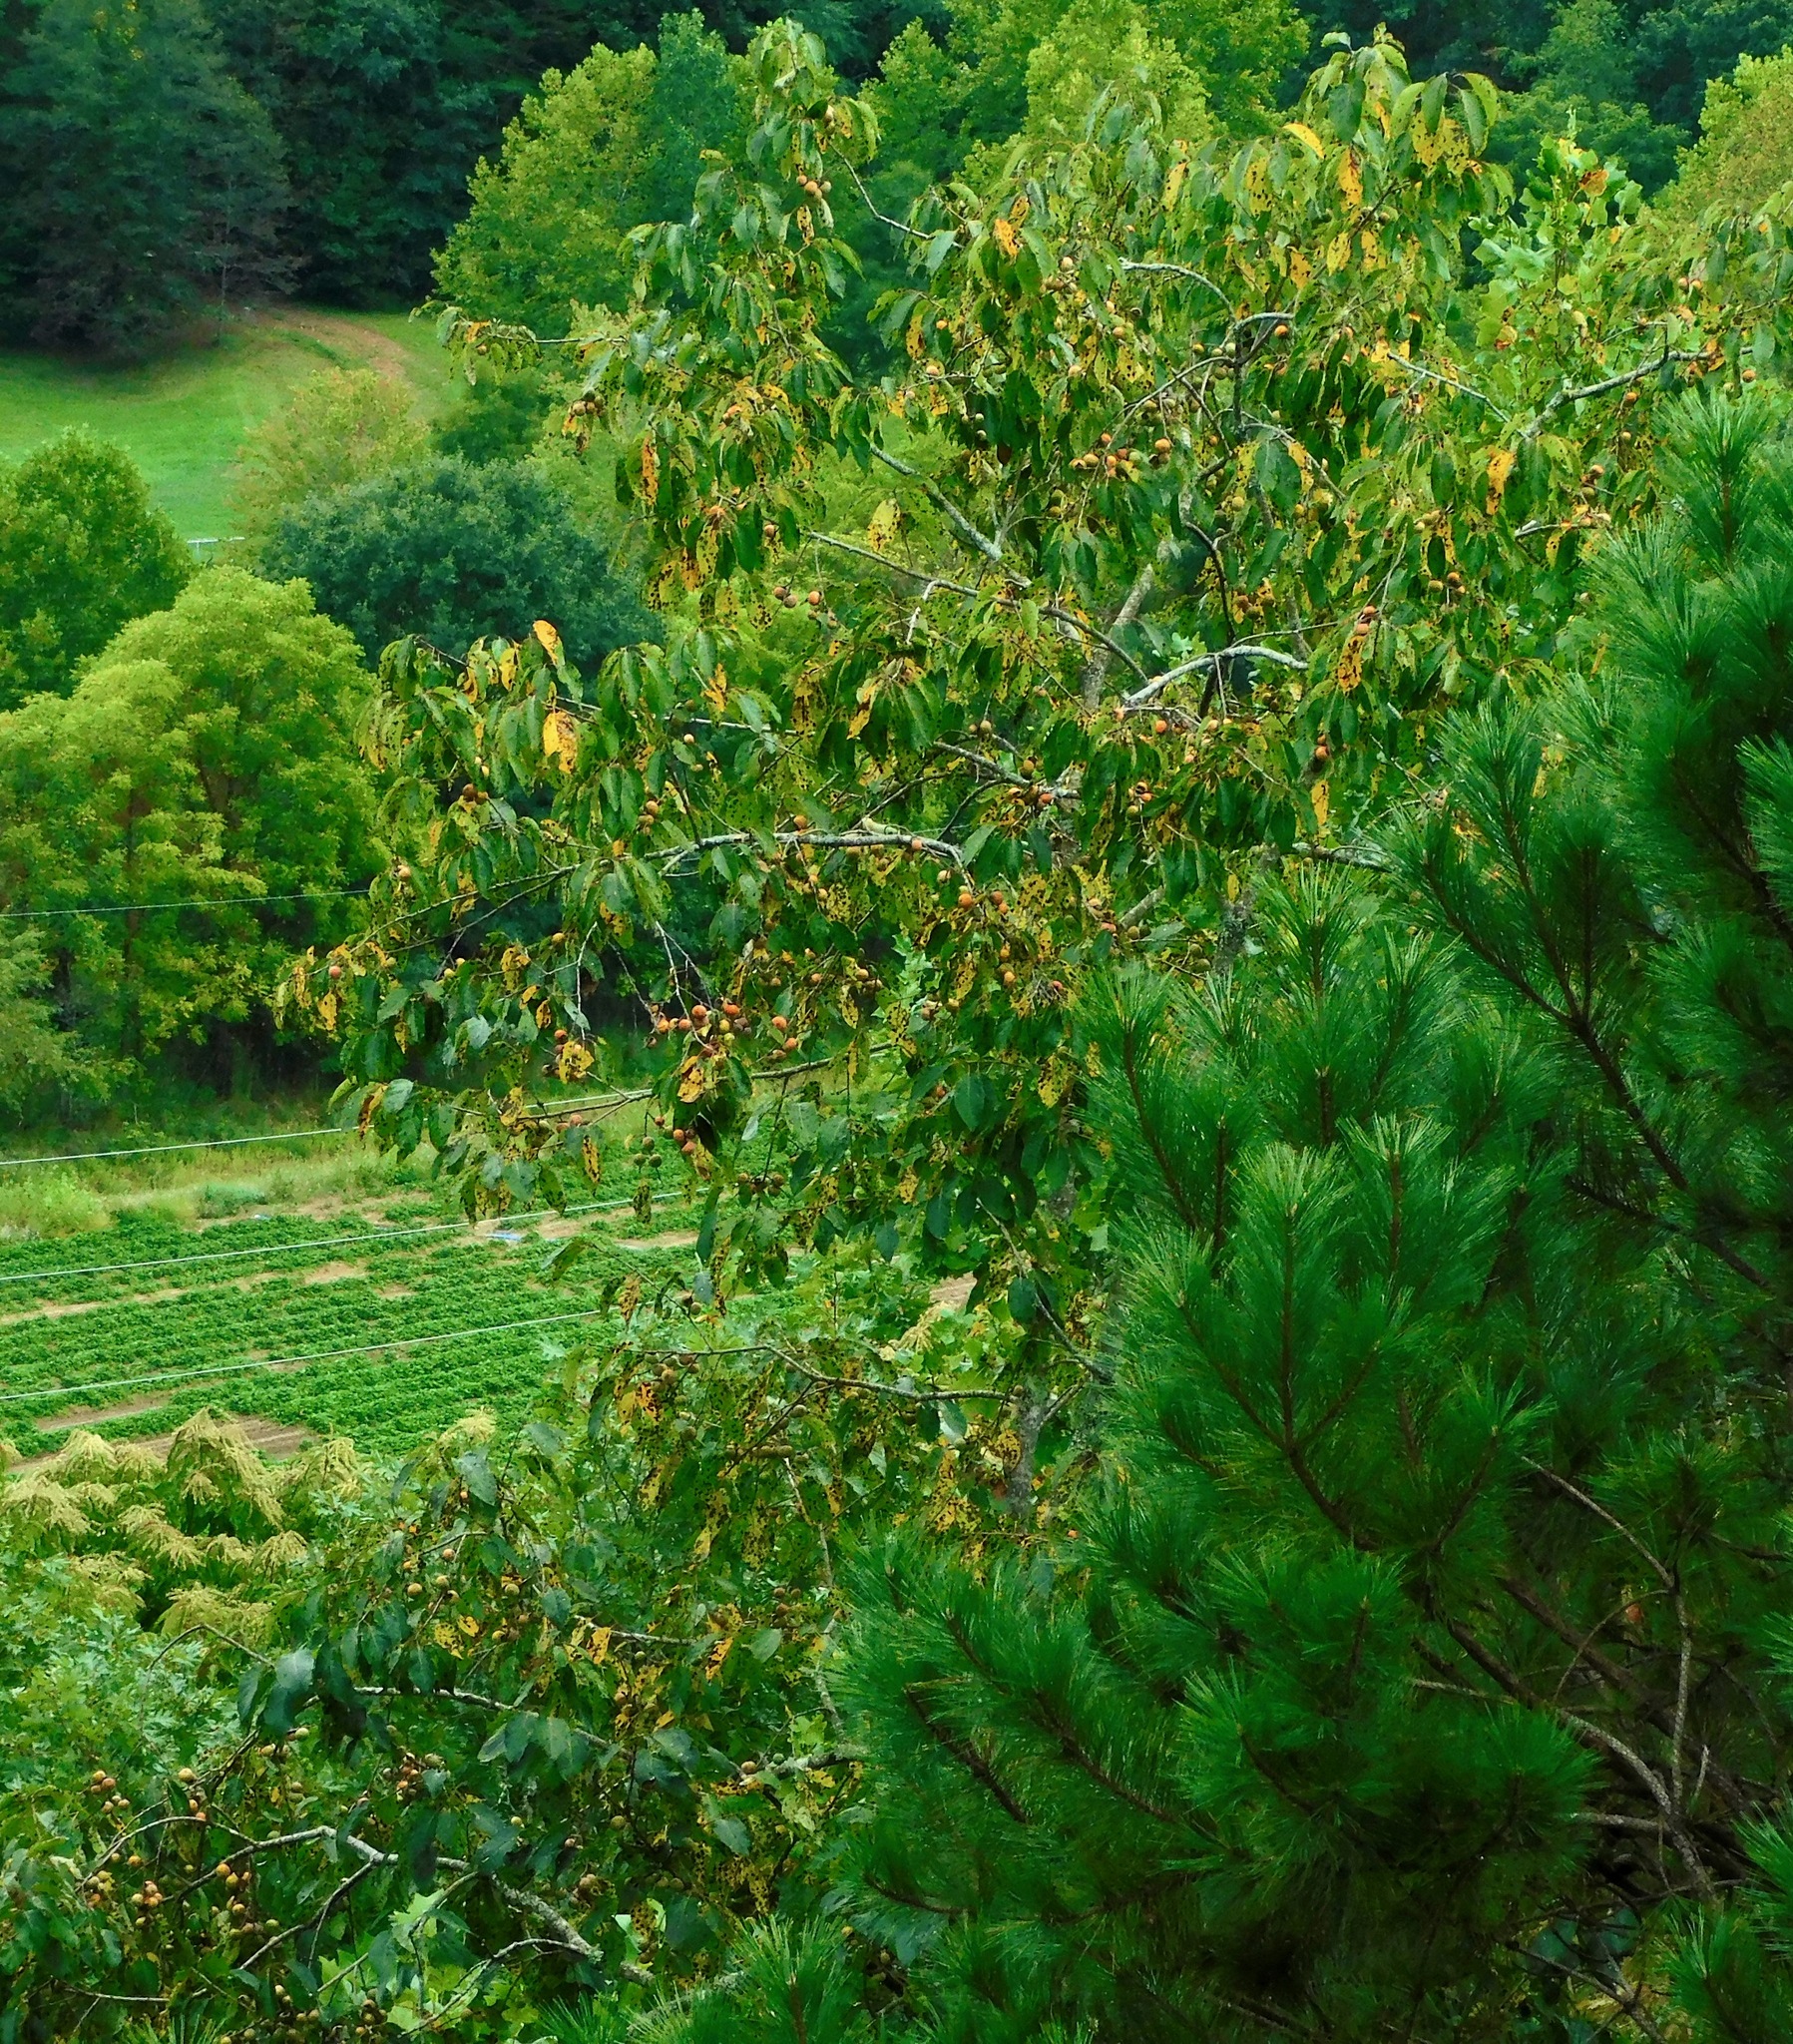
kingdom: Plantae
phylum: Tracheophyta
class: Magnoliopsida
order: Ericales
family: Ebenaceae
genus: Diospyros
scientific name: Diospyros virginiana
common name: Persimmon
